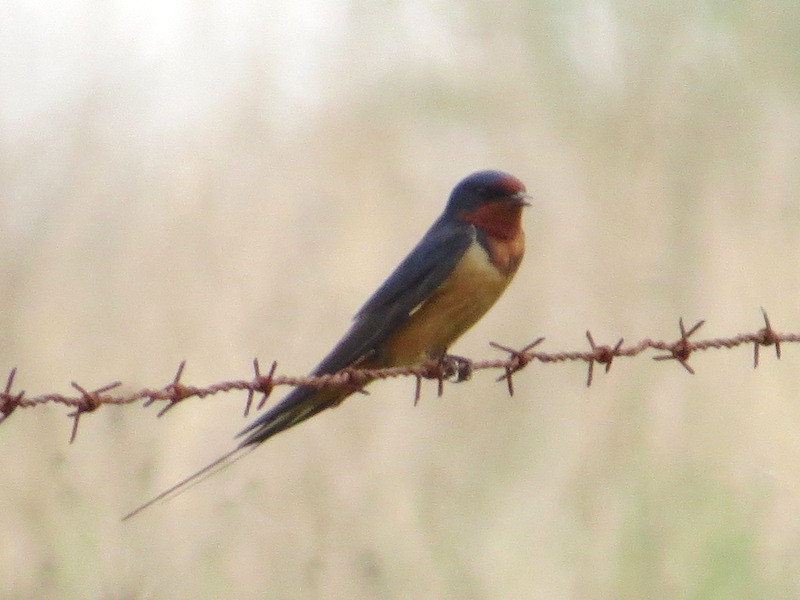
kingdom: Animalia
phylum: Chordata
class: Aves
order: Passeriformes
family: Hirundinidae
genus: Hirundo
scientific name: Hirundo rustica
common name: Barn swallow
